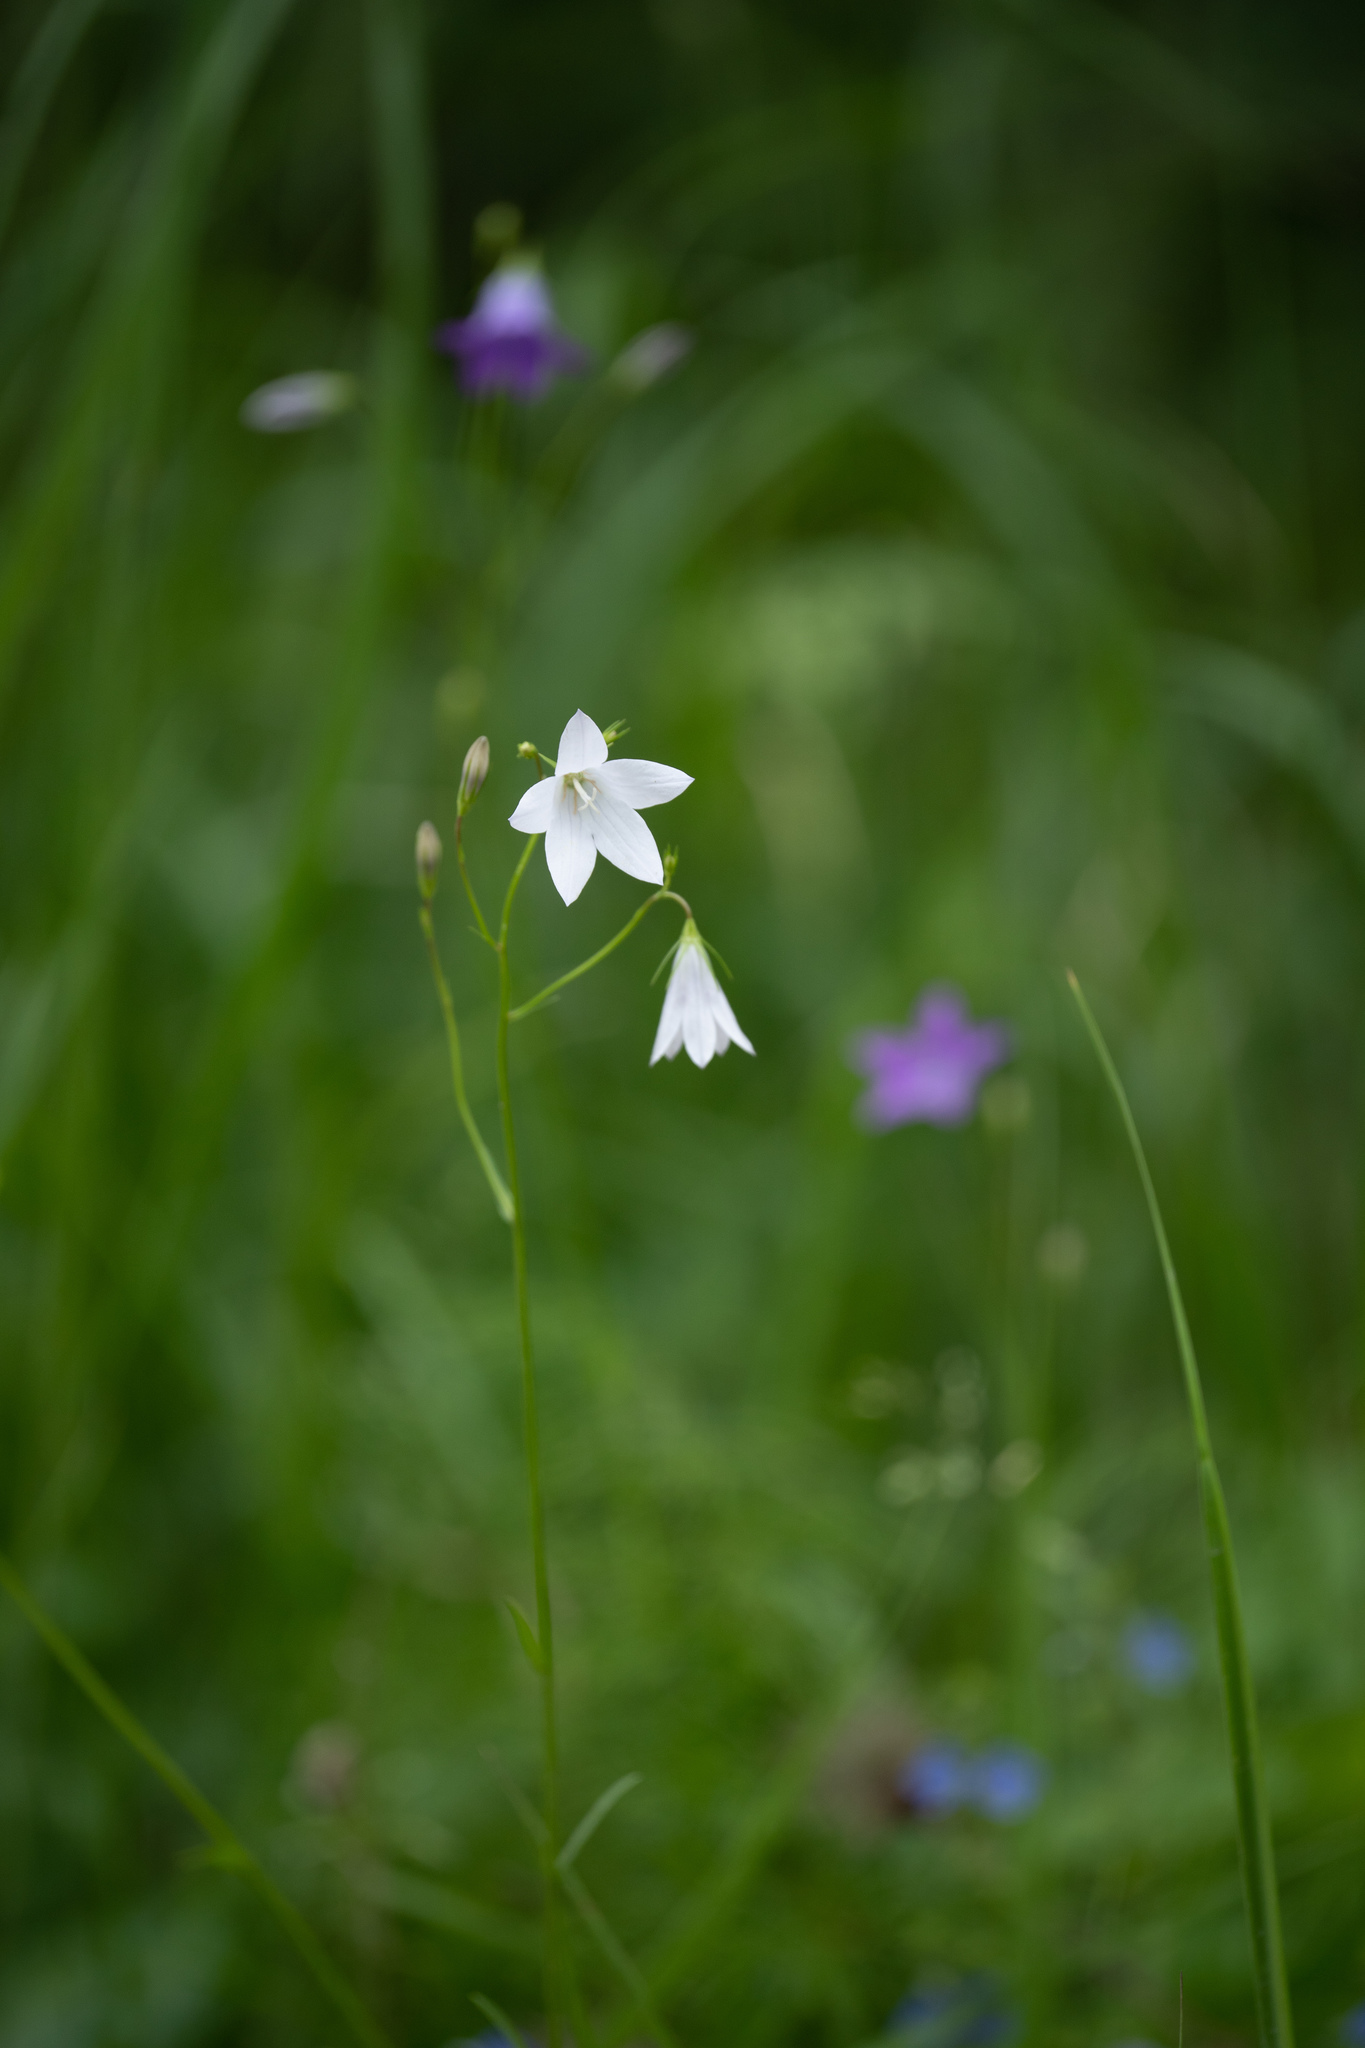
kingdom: Plantae
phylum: Tracheophyta
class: Magnoliopsida
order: Asterales
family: Campanulaceae
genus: Campanula
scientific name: Campanula patula
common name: Spreading bellflower
